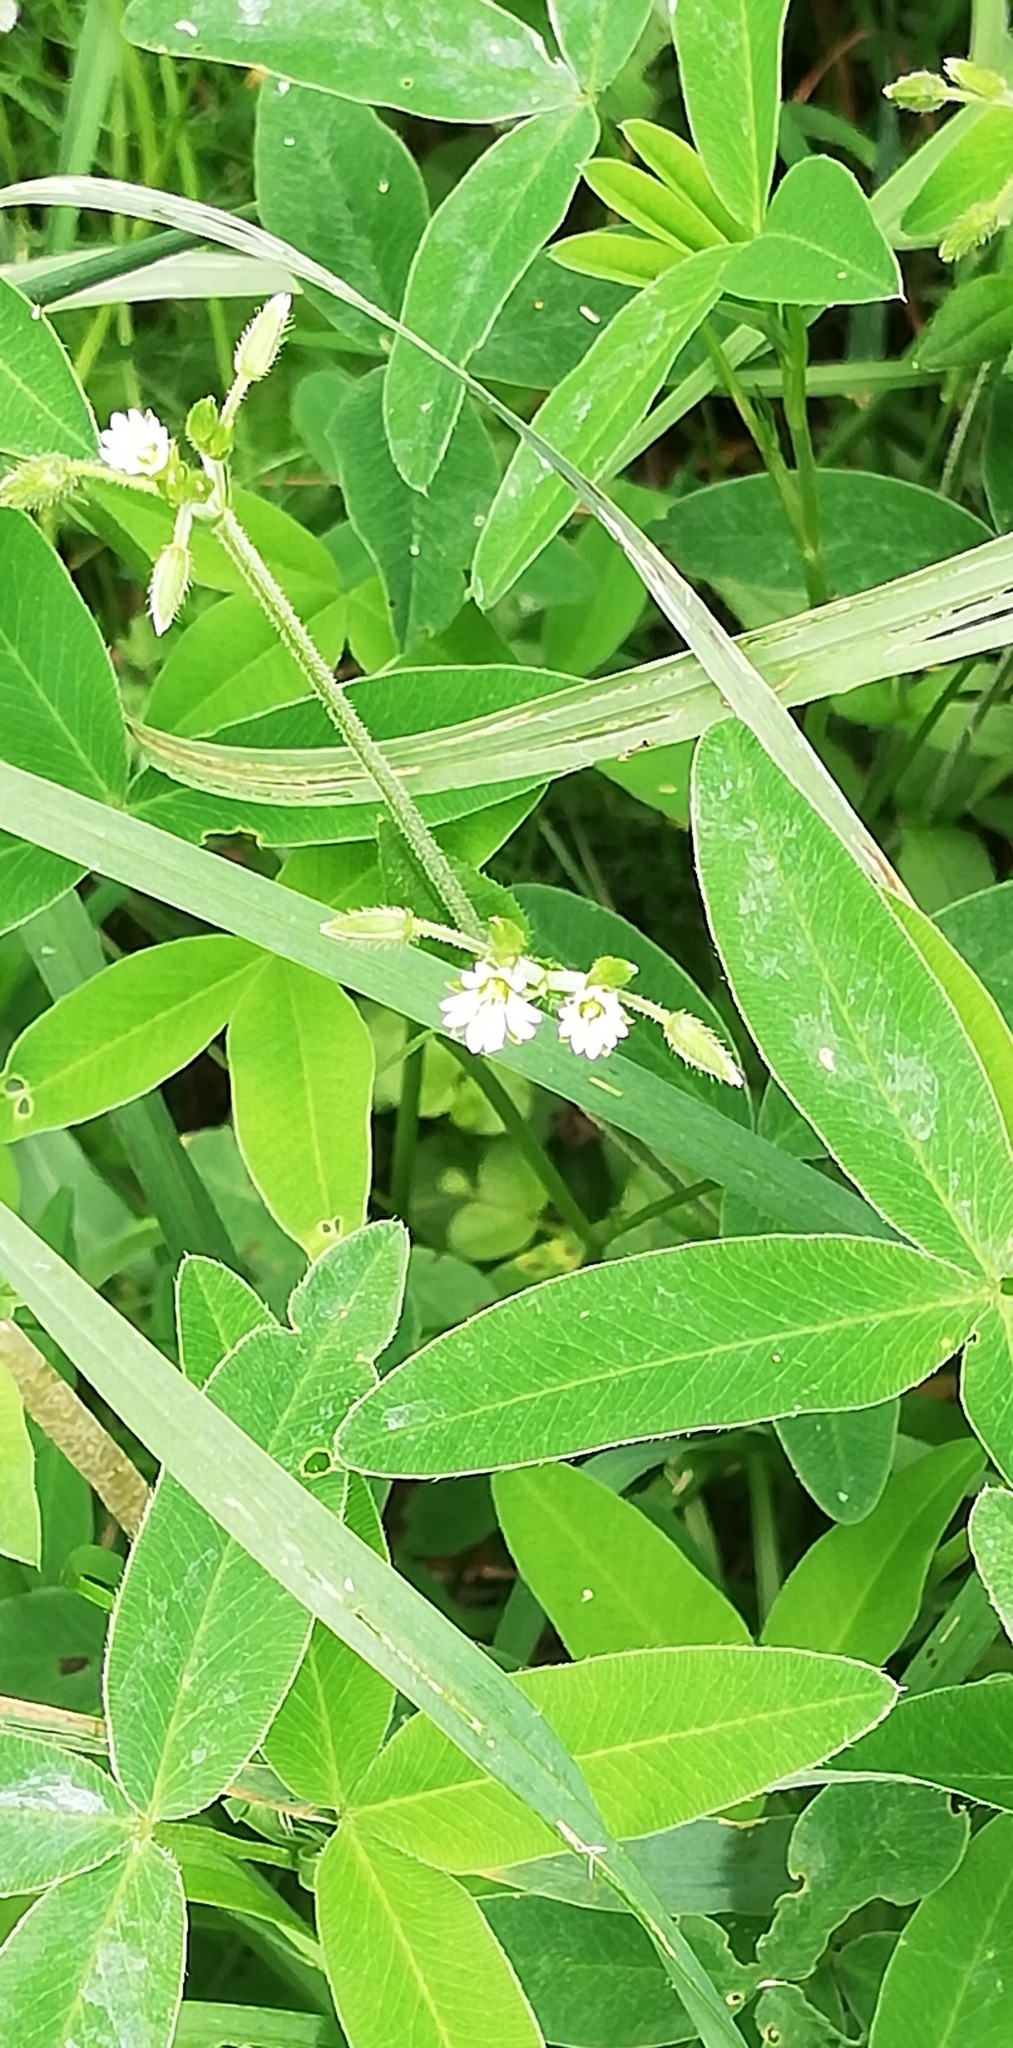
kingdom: Plantae
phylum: Tracheophyta
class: Magnoliopsida
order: Caryophyllales
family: Caryophyllaceae
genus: Cerastium
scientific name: Cerastium holosteoides
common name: Big chickweed
